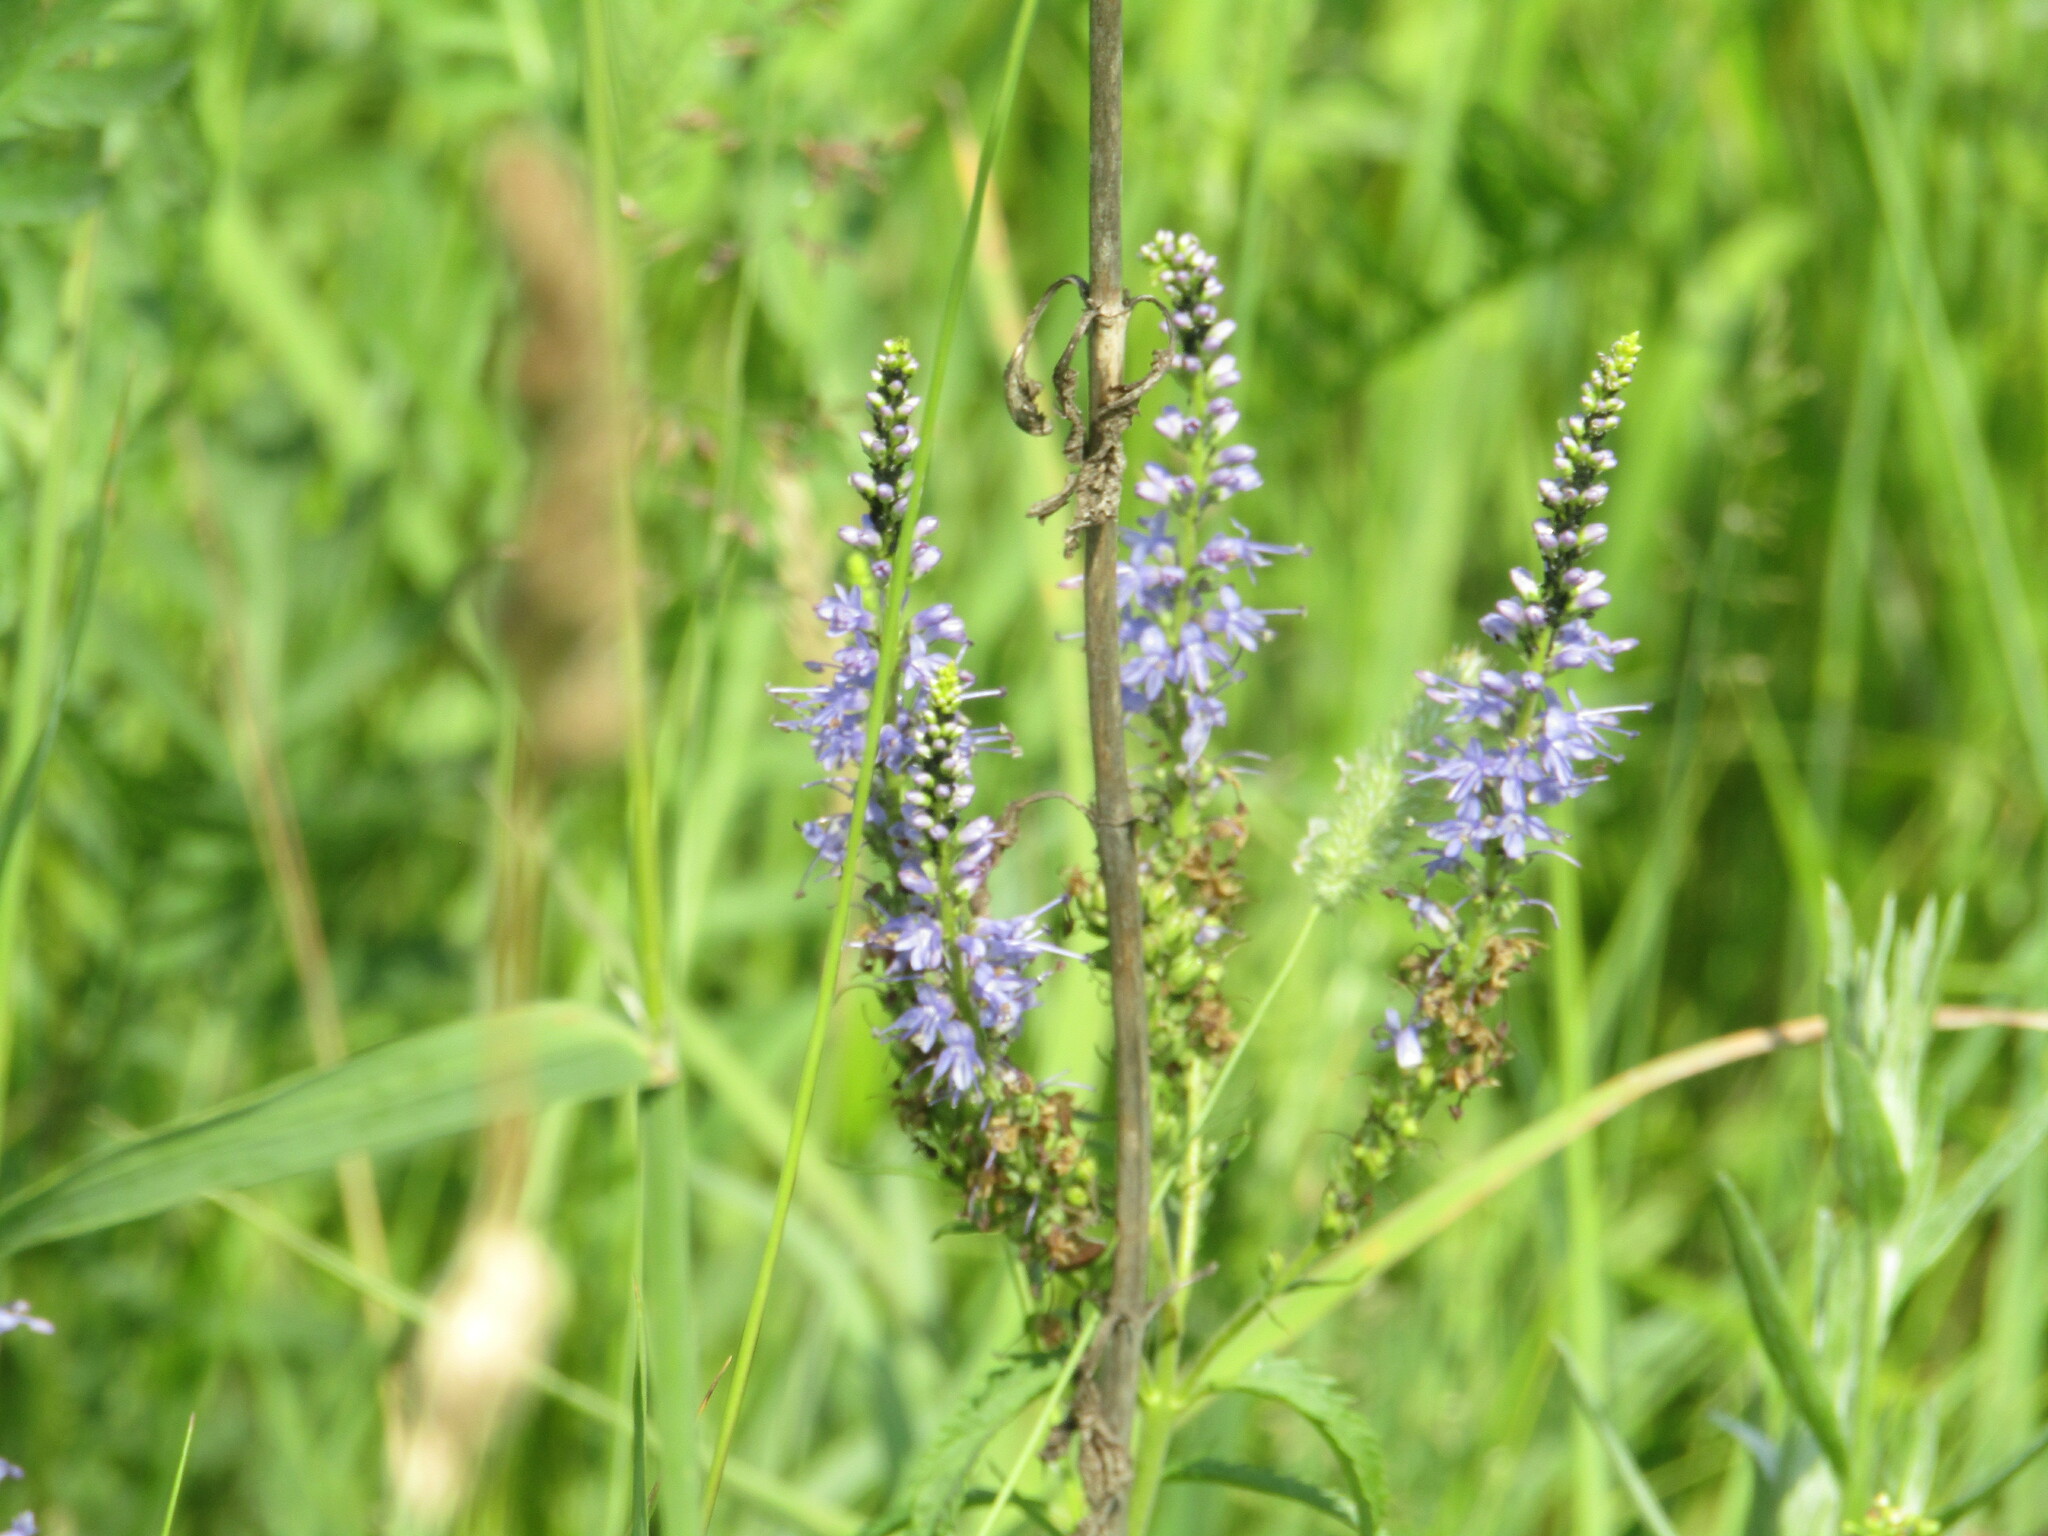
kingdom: Plantae
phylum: Tracheophyta
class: Magnoliopsida
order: Lamiales
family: Plantaginaceae
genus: Veronica
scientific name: Veronica longifolia
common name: Garden speedwell
